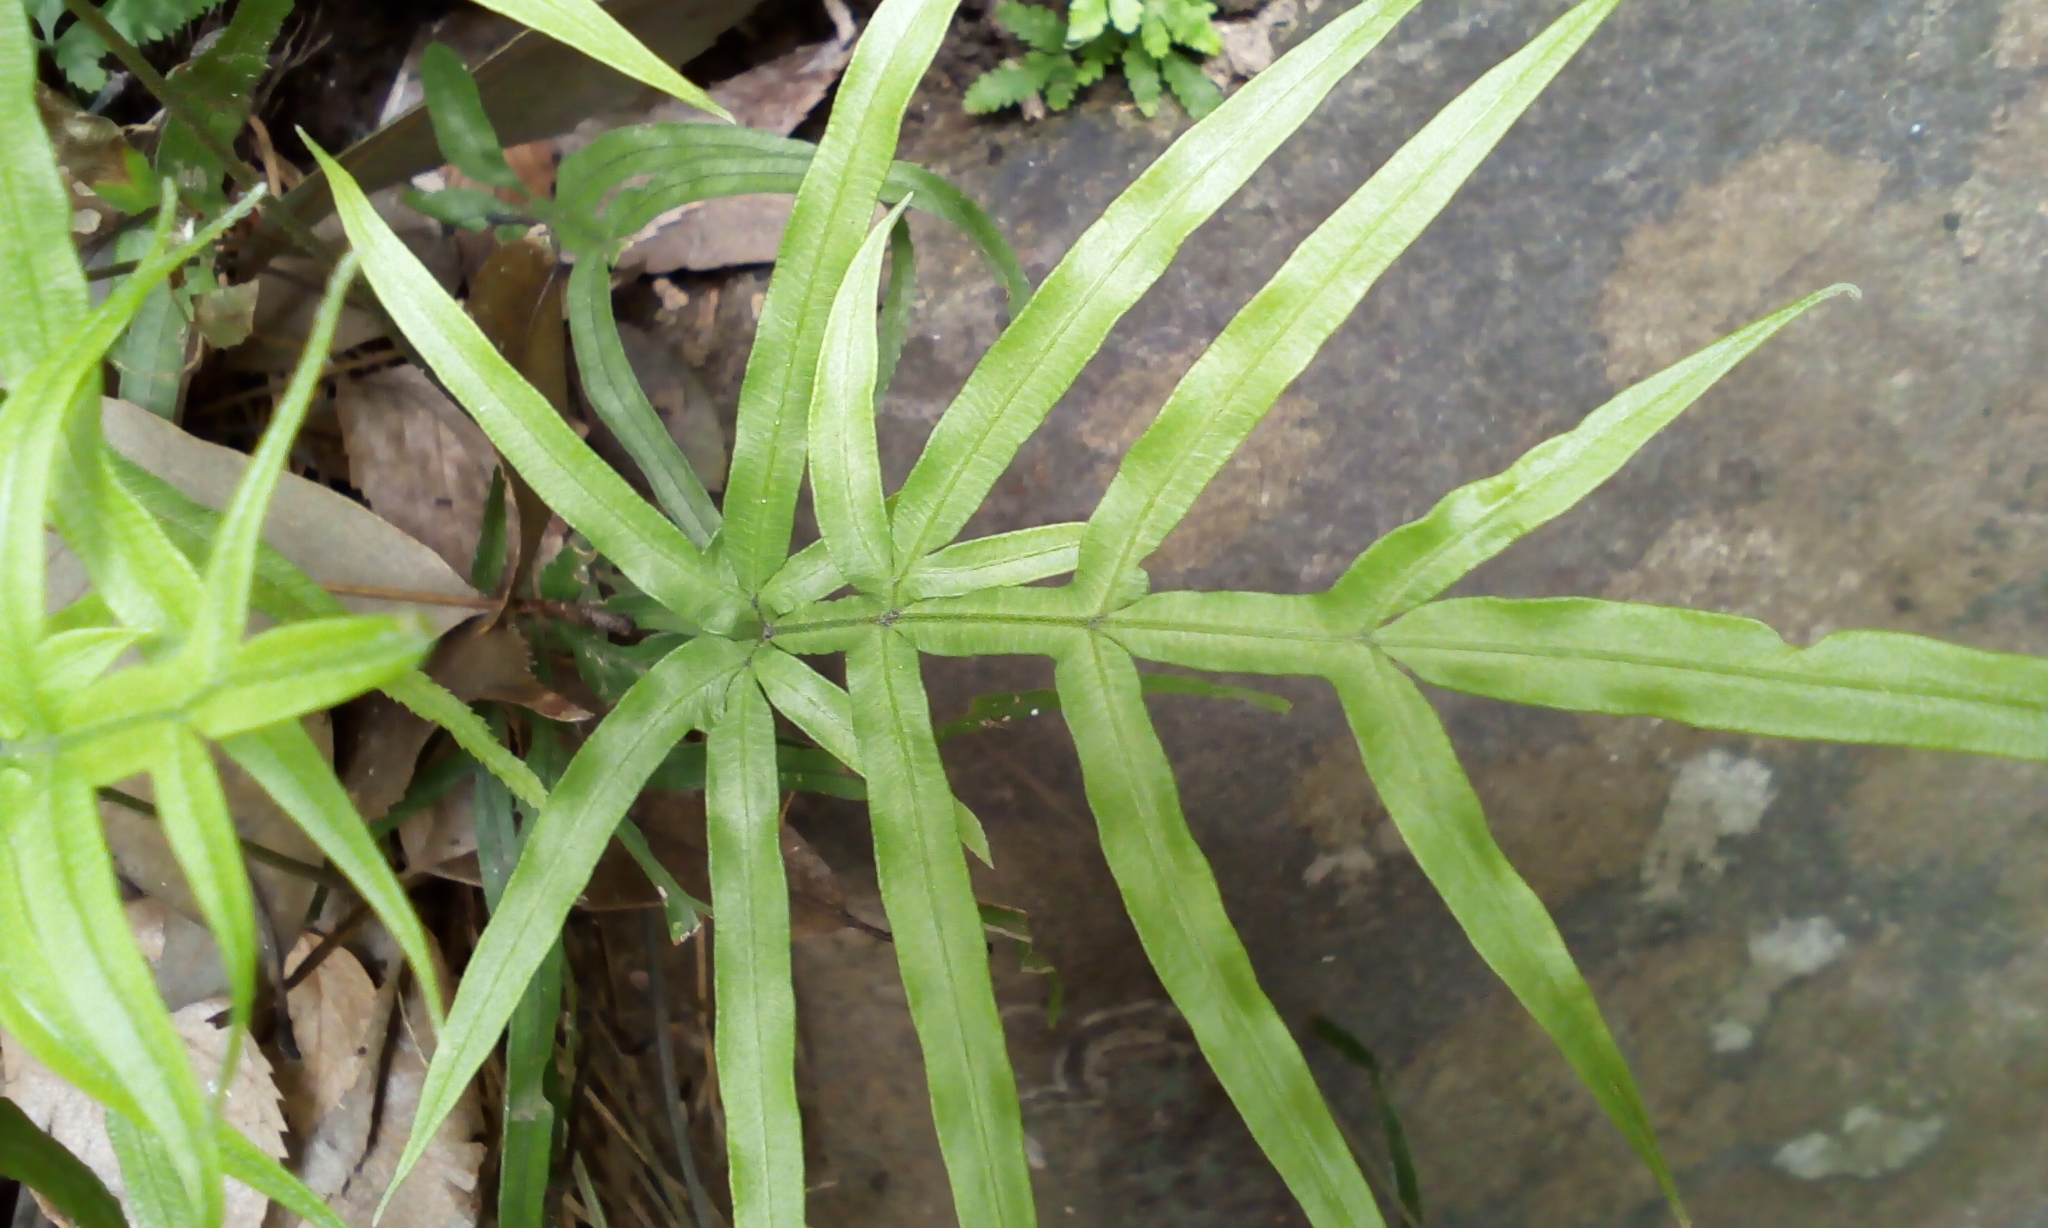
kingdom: Plantae
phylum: Tracheophyta
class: Polypodiopsida
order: Polypodiales
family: Pteridaceae
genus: Pteris
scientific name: Pteris multifida
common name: Spider brake
